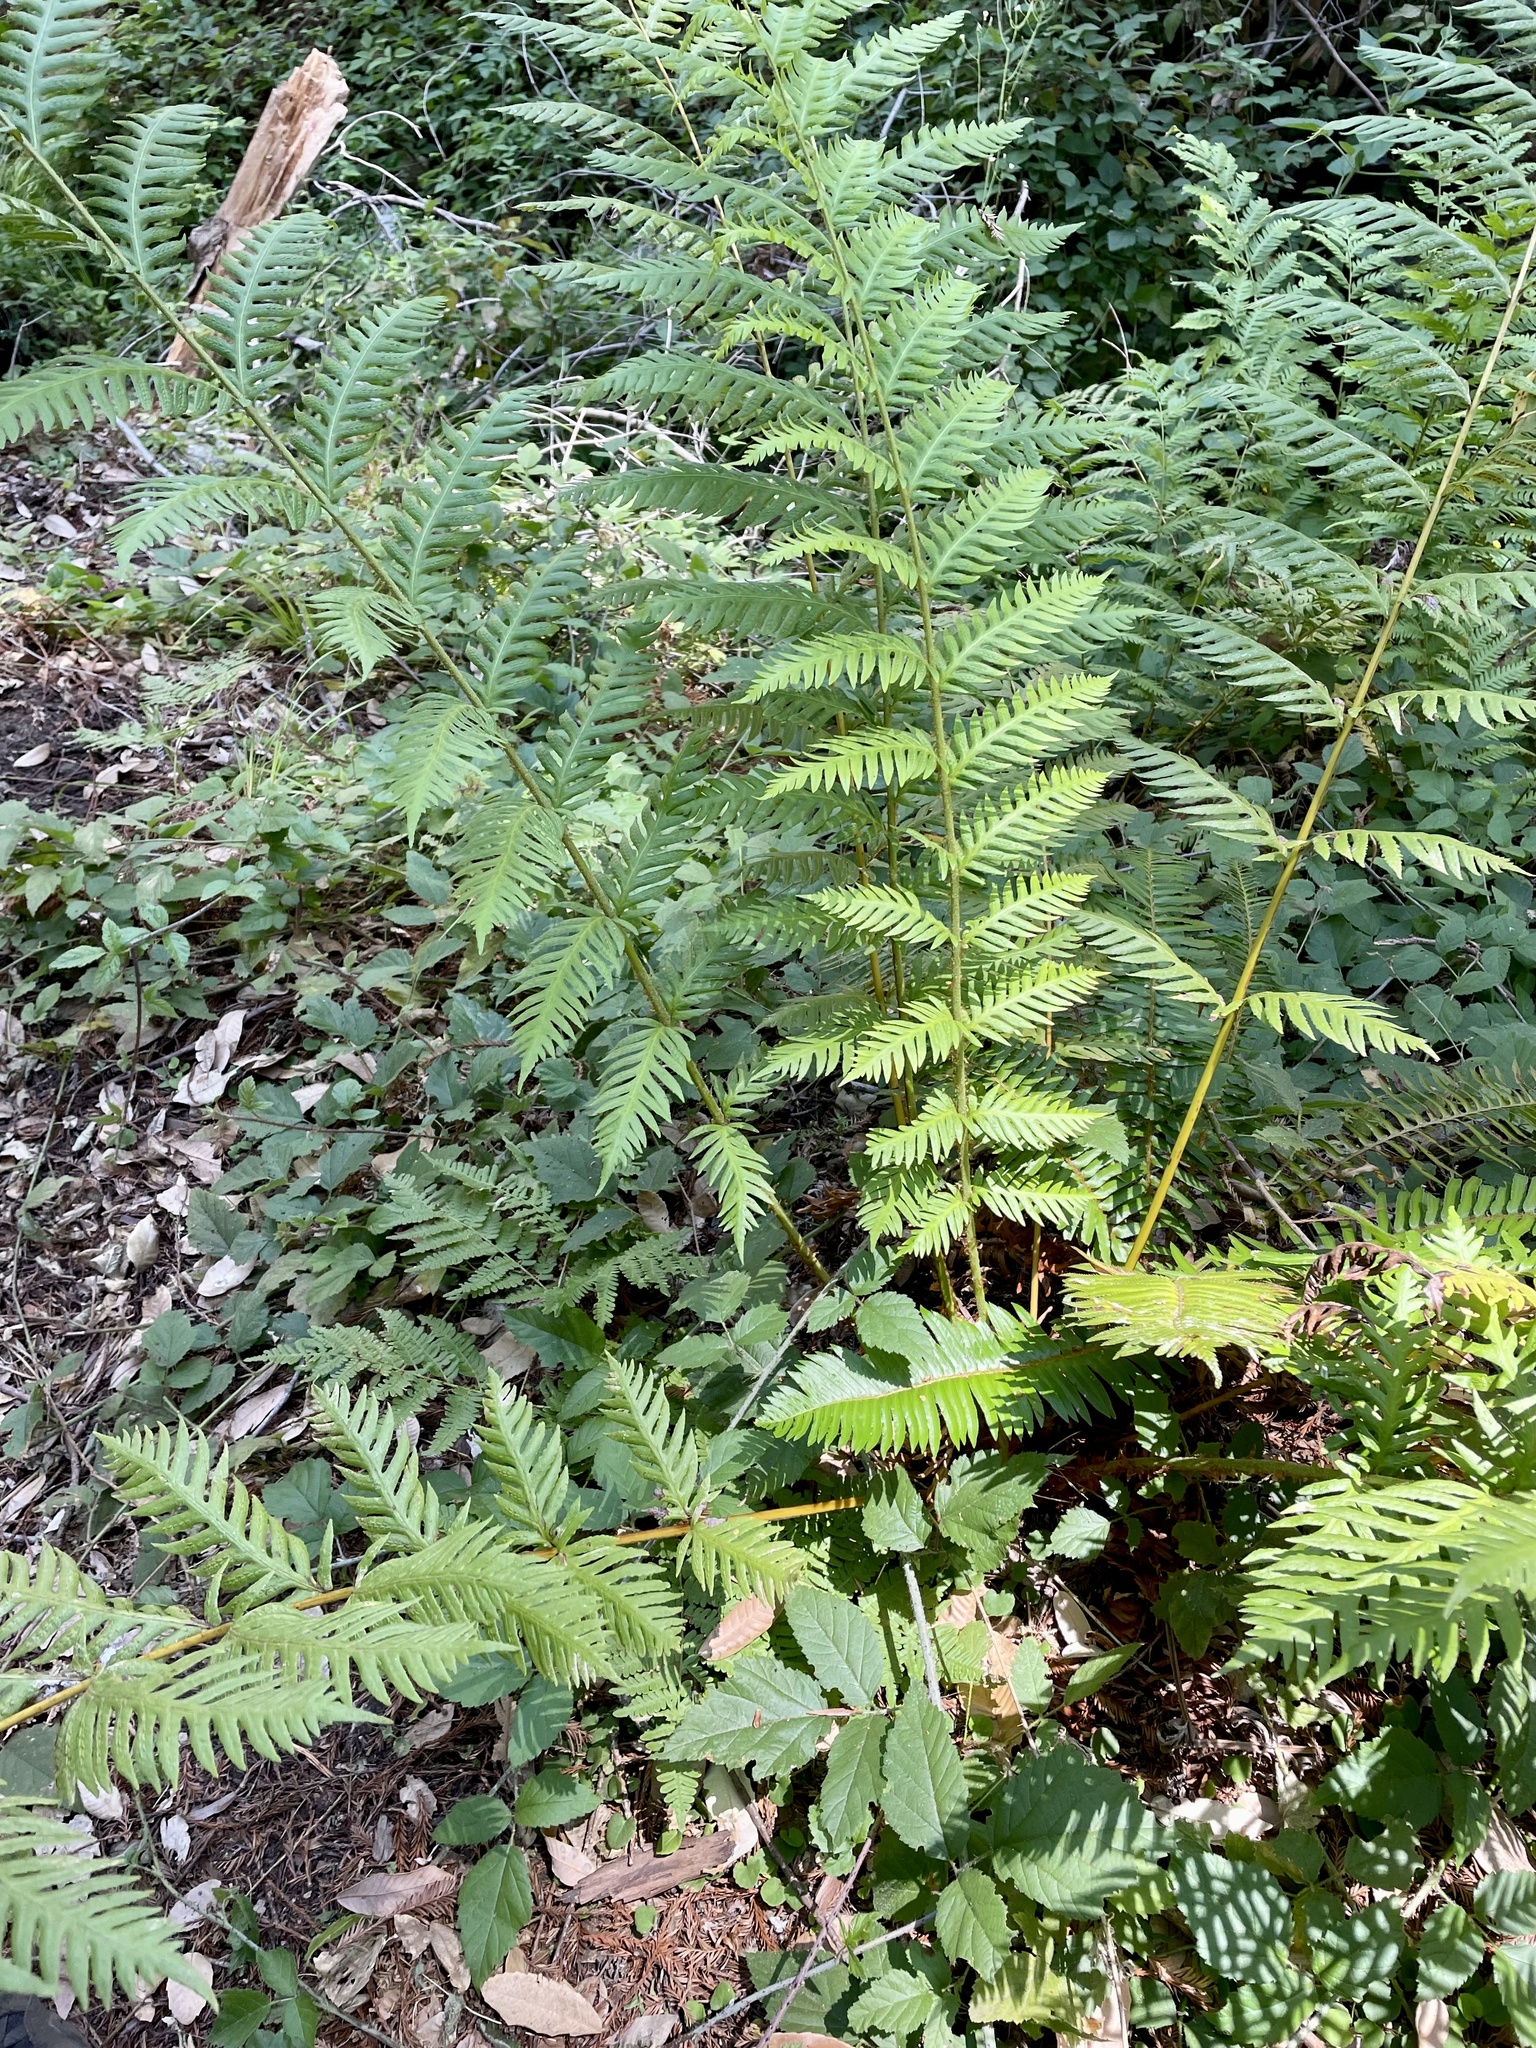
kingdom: Plantae
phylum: Tracheophyta
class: Polypodiopsida
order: Polypodiales
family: Blechnaceae
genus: Woodwardia
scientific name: Woodwardia fimbriata
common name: Giant chain fern
